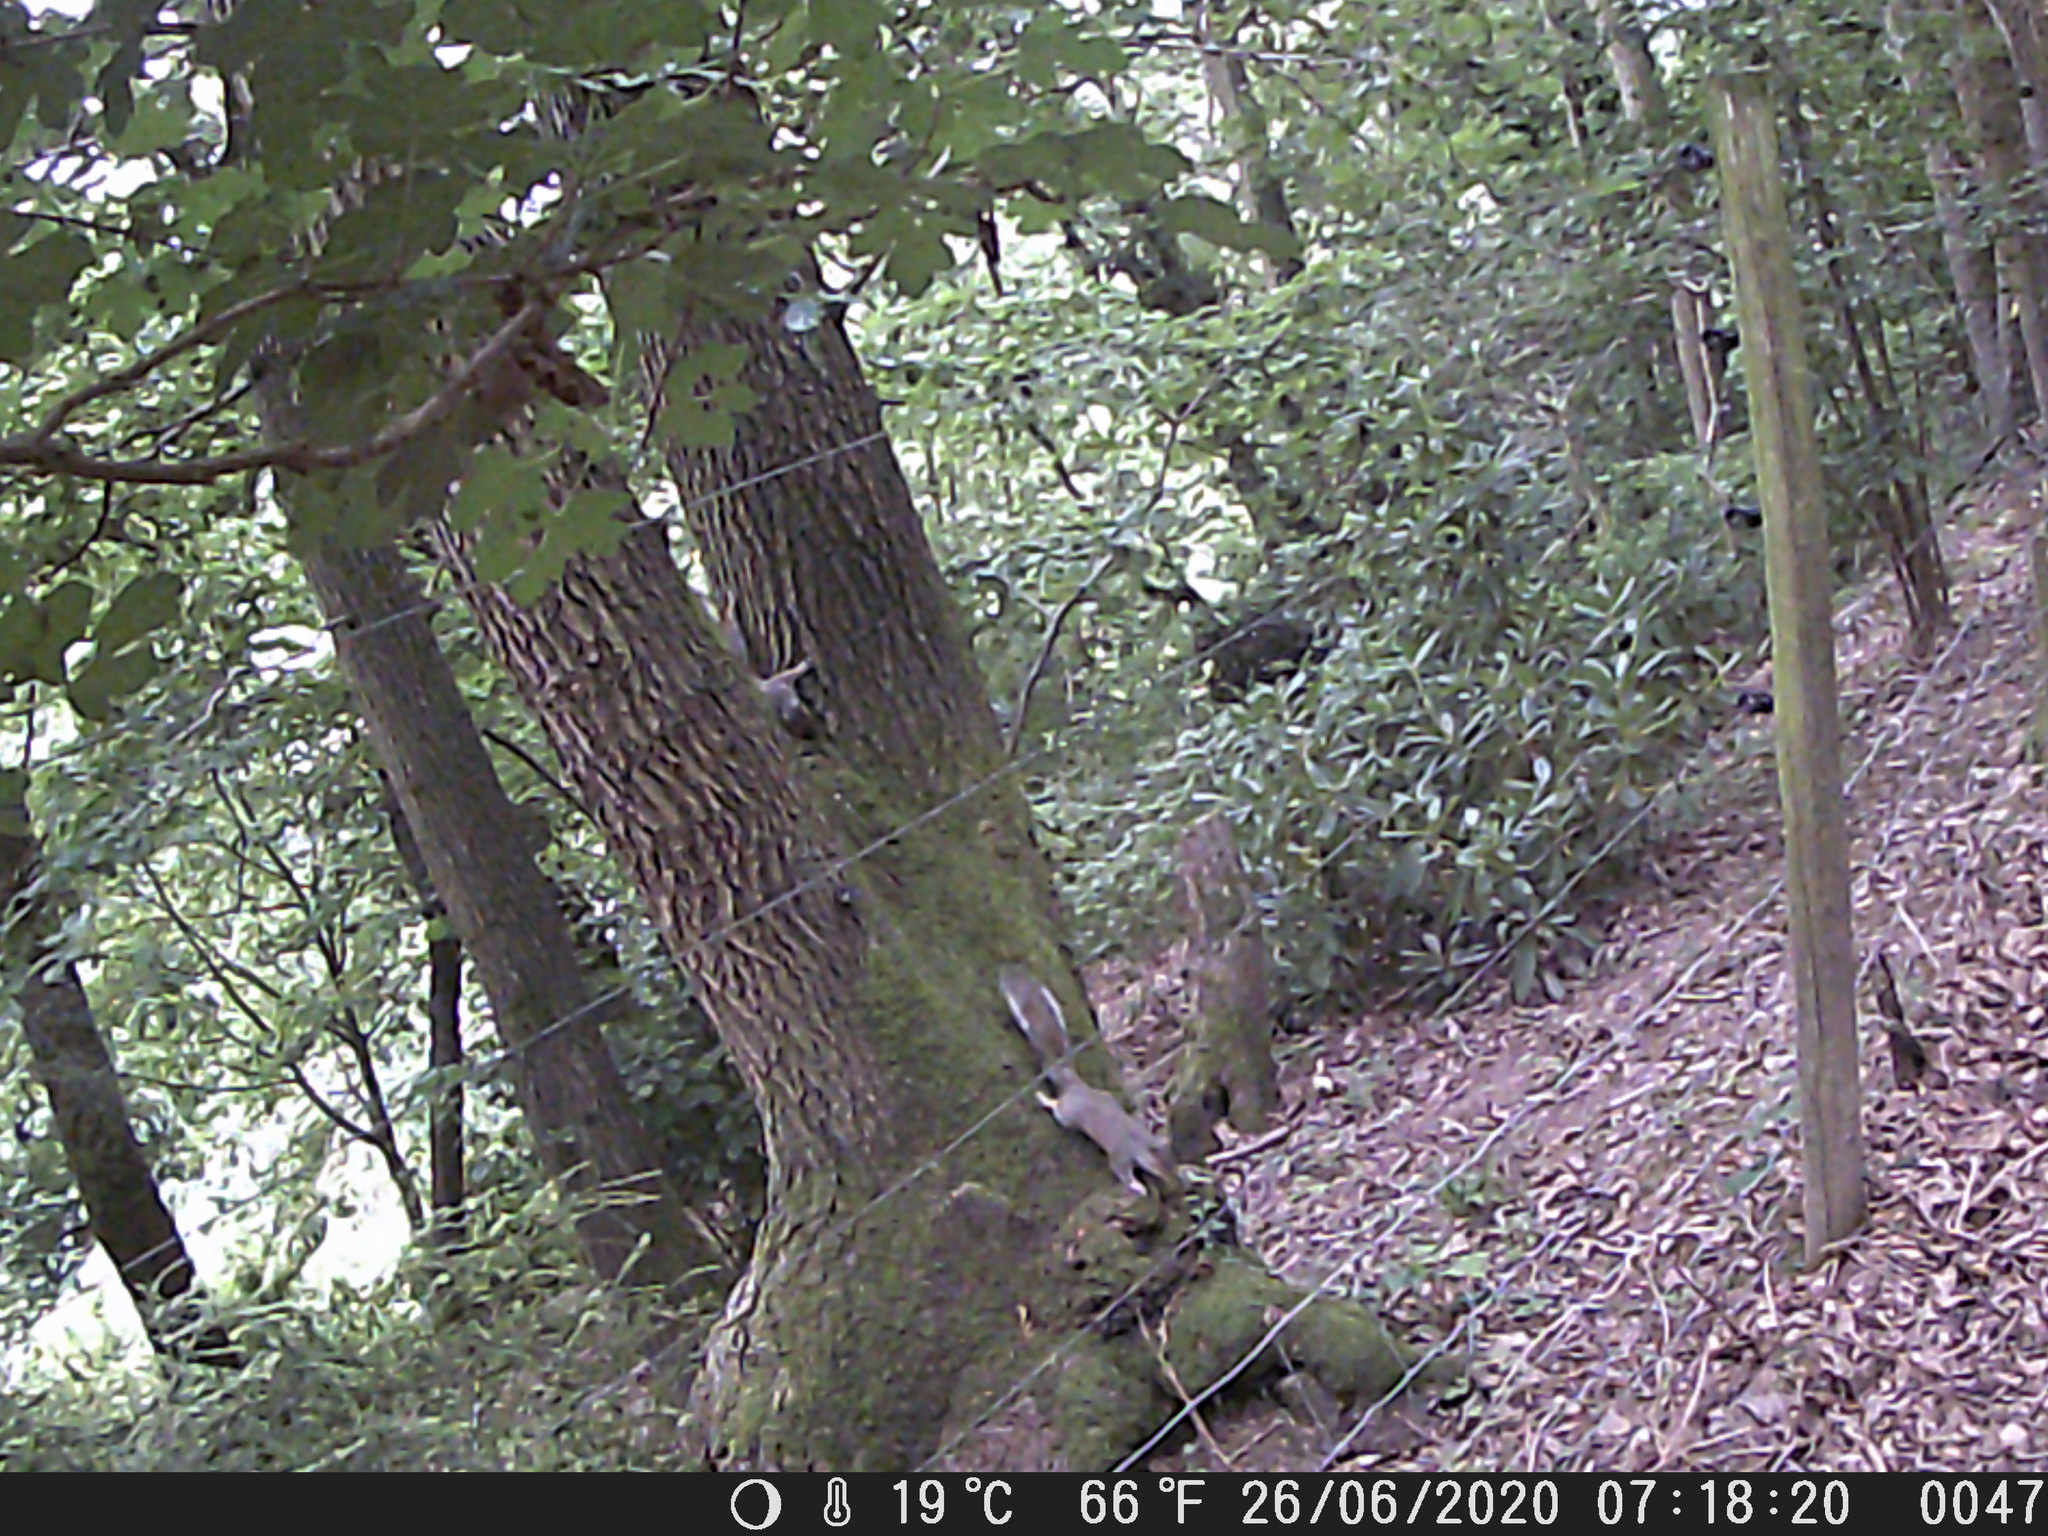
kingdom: Animalia
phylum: Chordata
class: Mammalia
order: Rodentia
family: Sciuridae
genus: Sciurus
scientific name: Sciurus carolinensis
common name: Eastern gray squirrel
